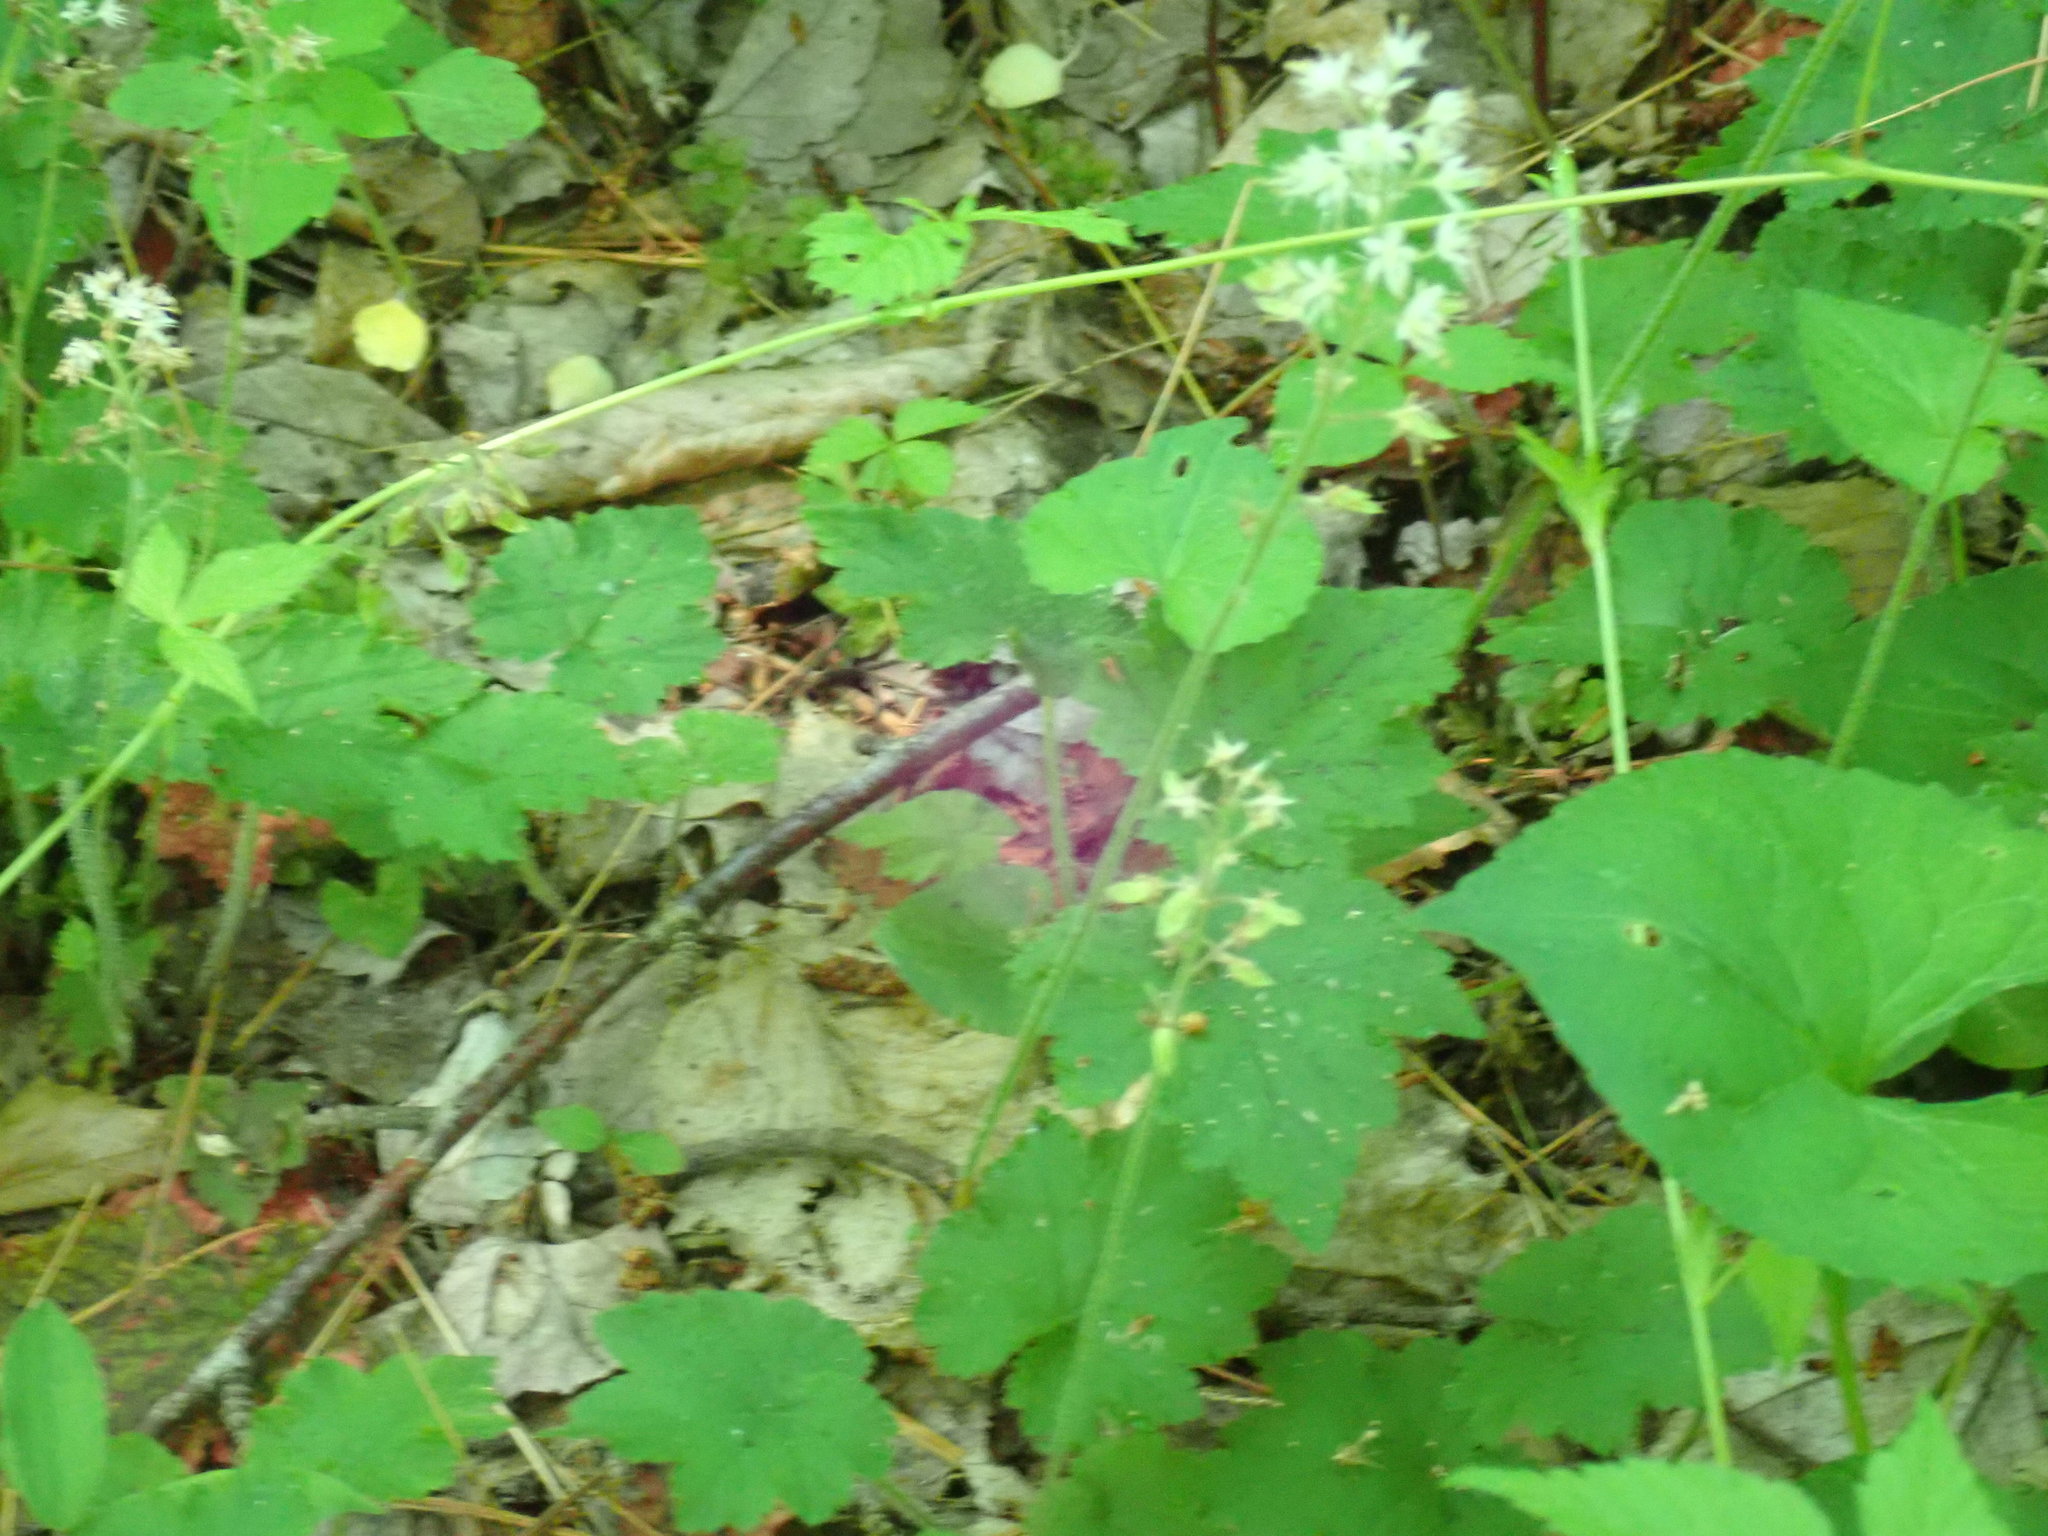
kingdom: Plantae
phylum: Tracheophyta
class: Magnoliopsida
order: Saxifragales
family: Saxifragaceae
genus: Tiarella
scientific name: Tiarella stolonifera
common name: Stoloniferous foamflower
